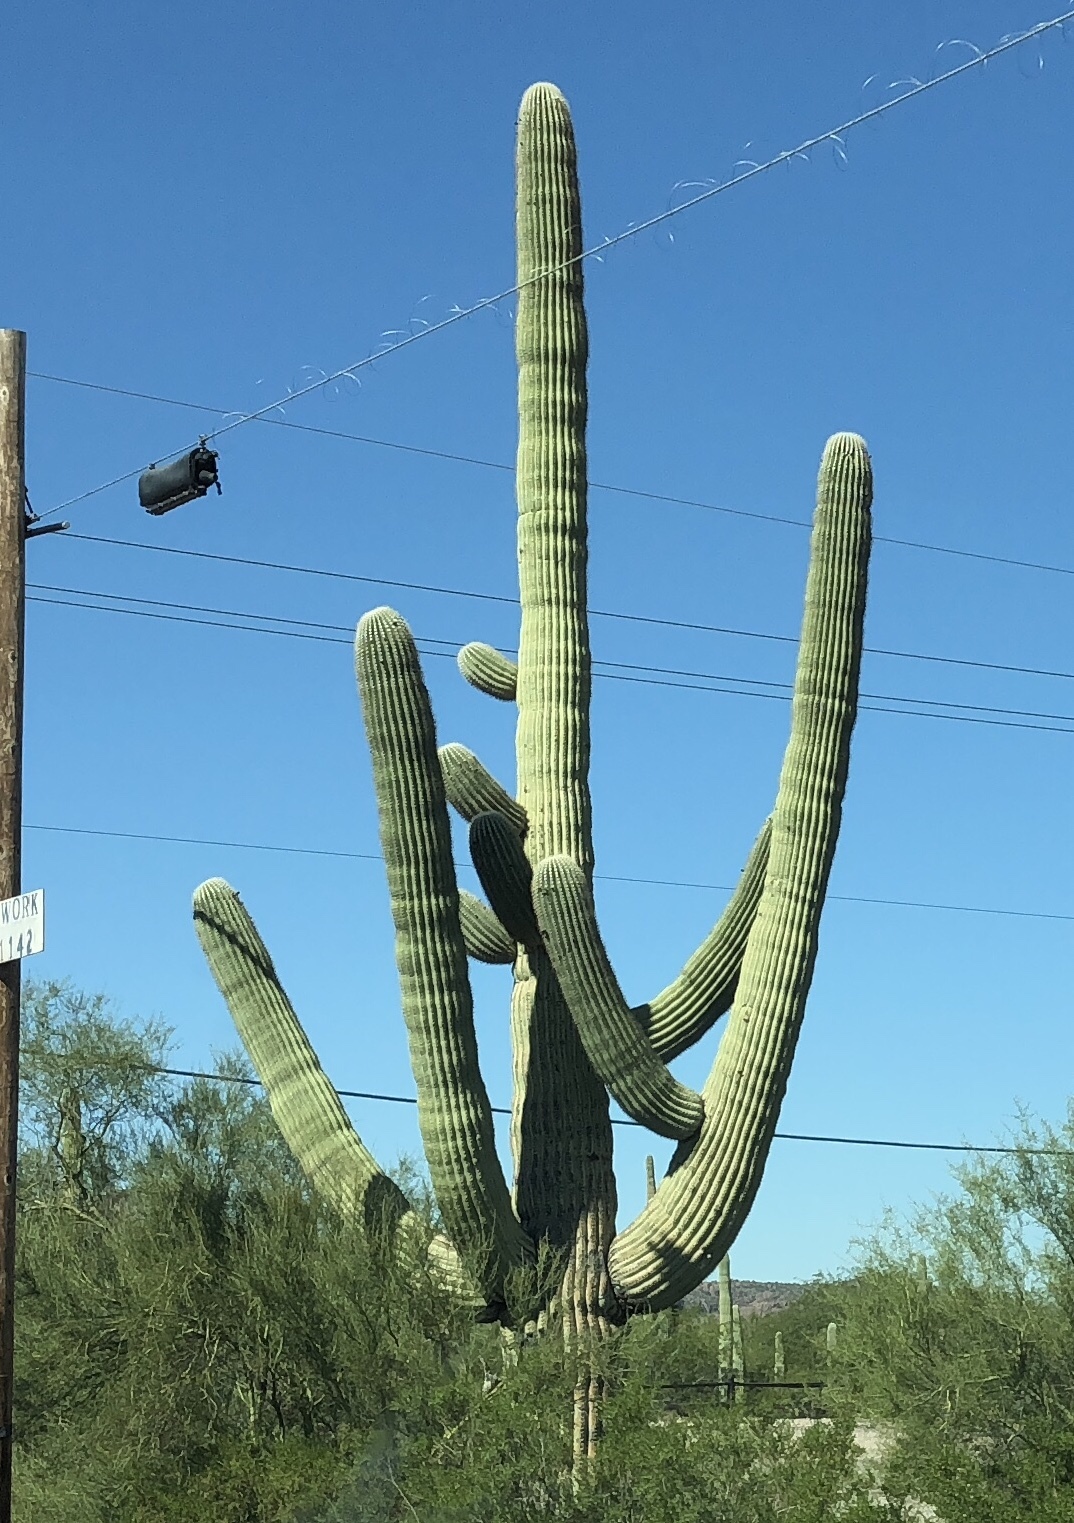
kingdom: Plantae
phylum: Tracheophyta
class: Magnoliopsida
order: Caryophyllales
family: Cactaceae
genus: Carnegiea
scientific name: Carnegiea gigantea
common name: Saguaro
